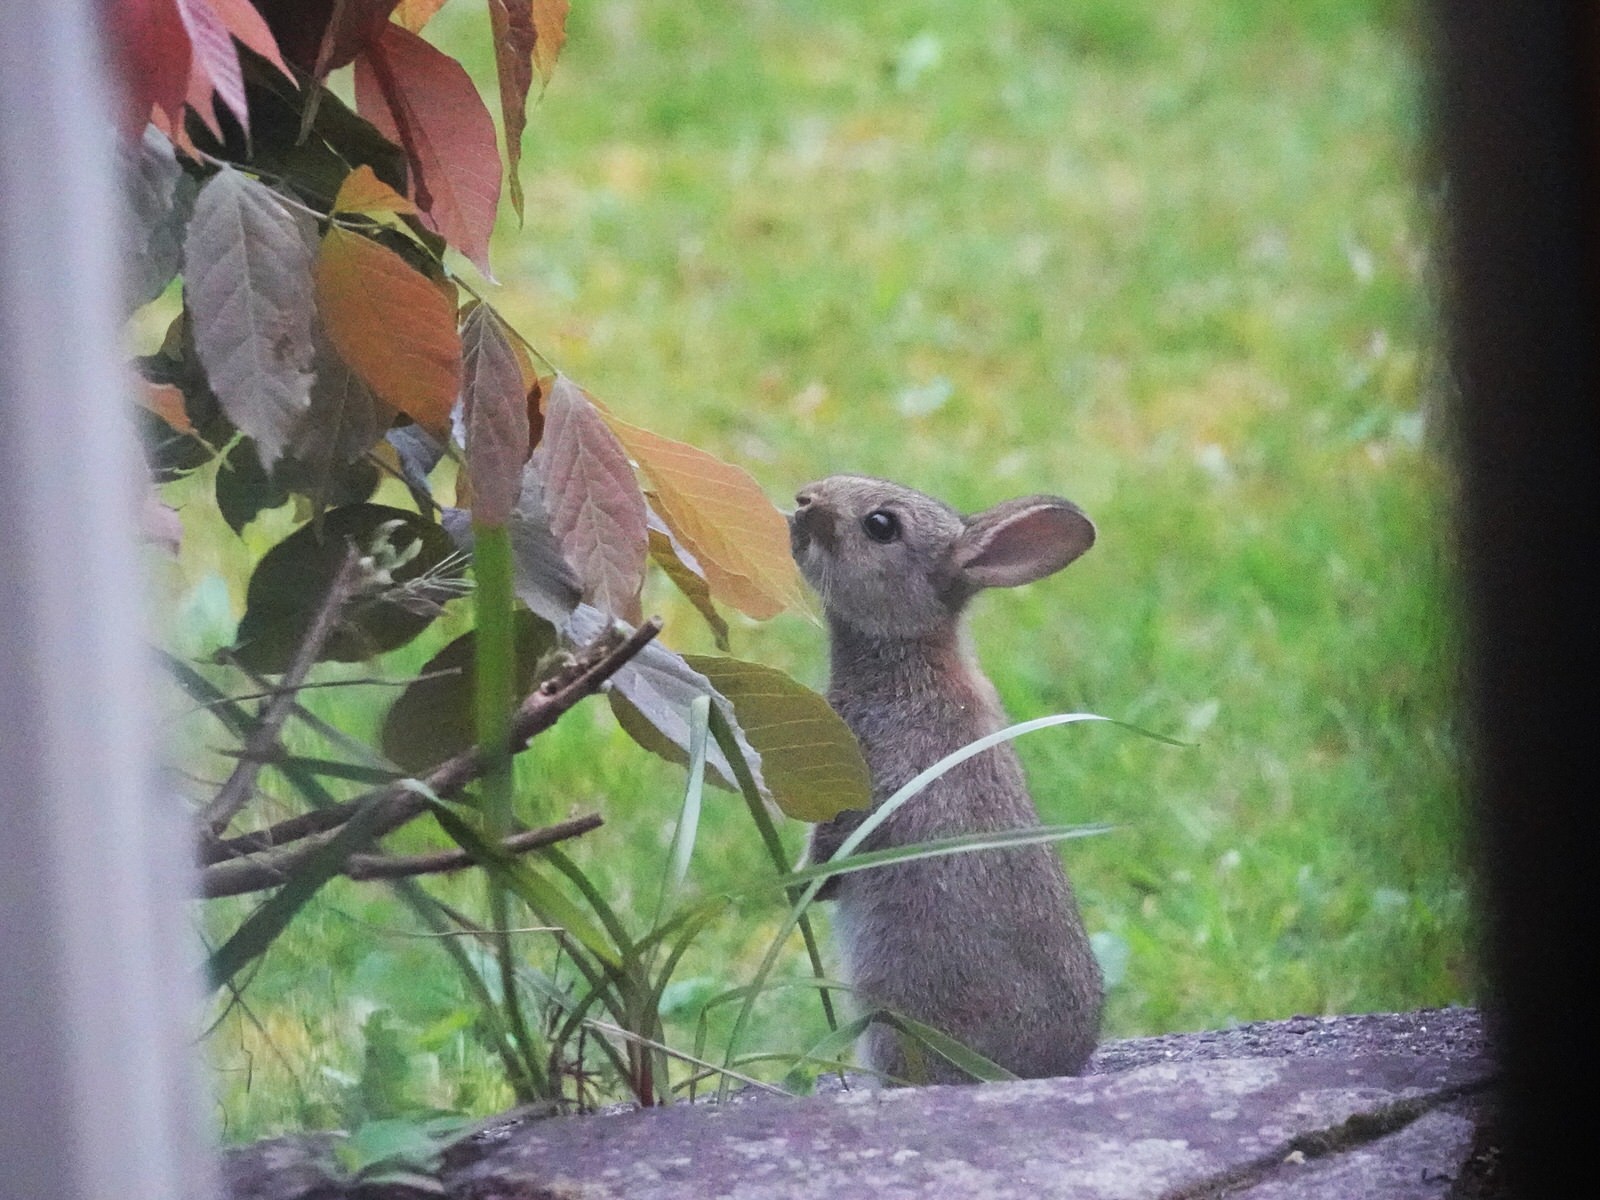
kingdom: Animalia
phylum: Chordata
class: Mammalia
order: Lagomorpha
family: Leporidae
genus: Oryctolagus
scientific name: Oryctolagus cuniculus
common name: European rabbit
